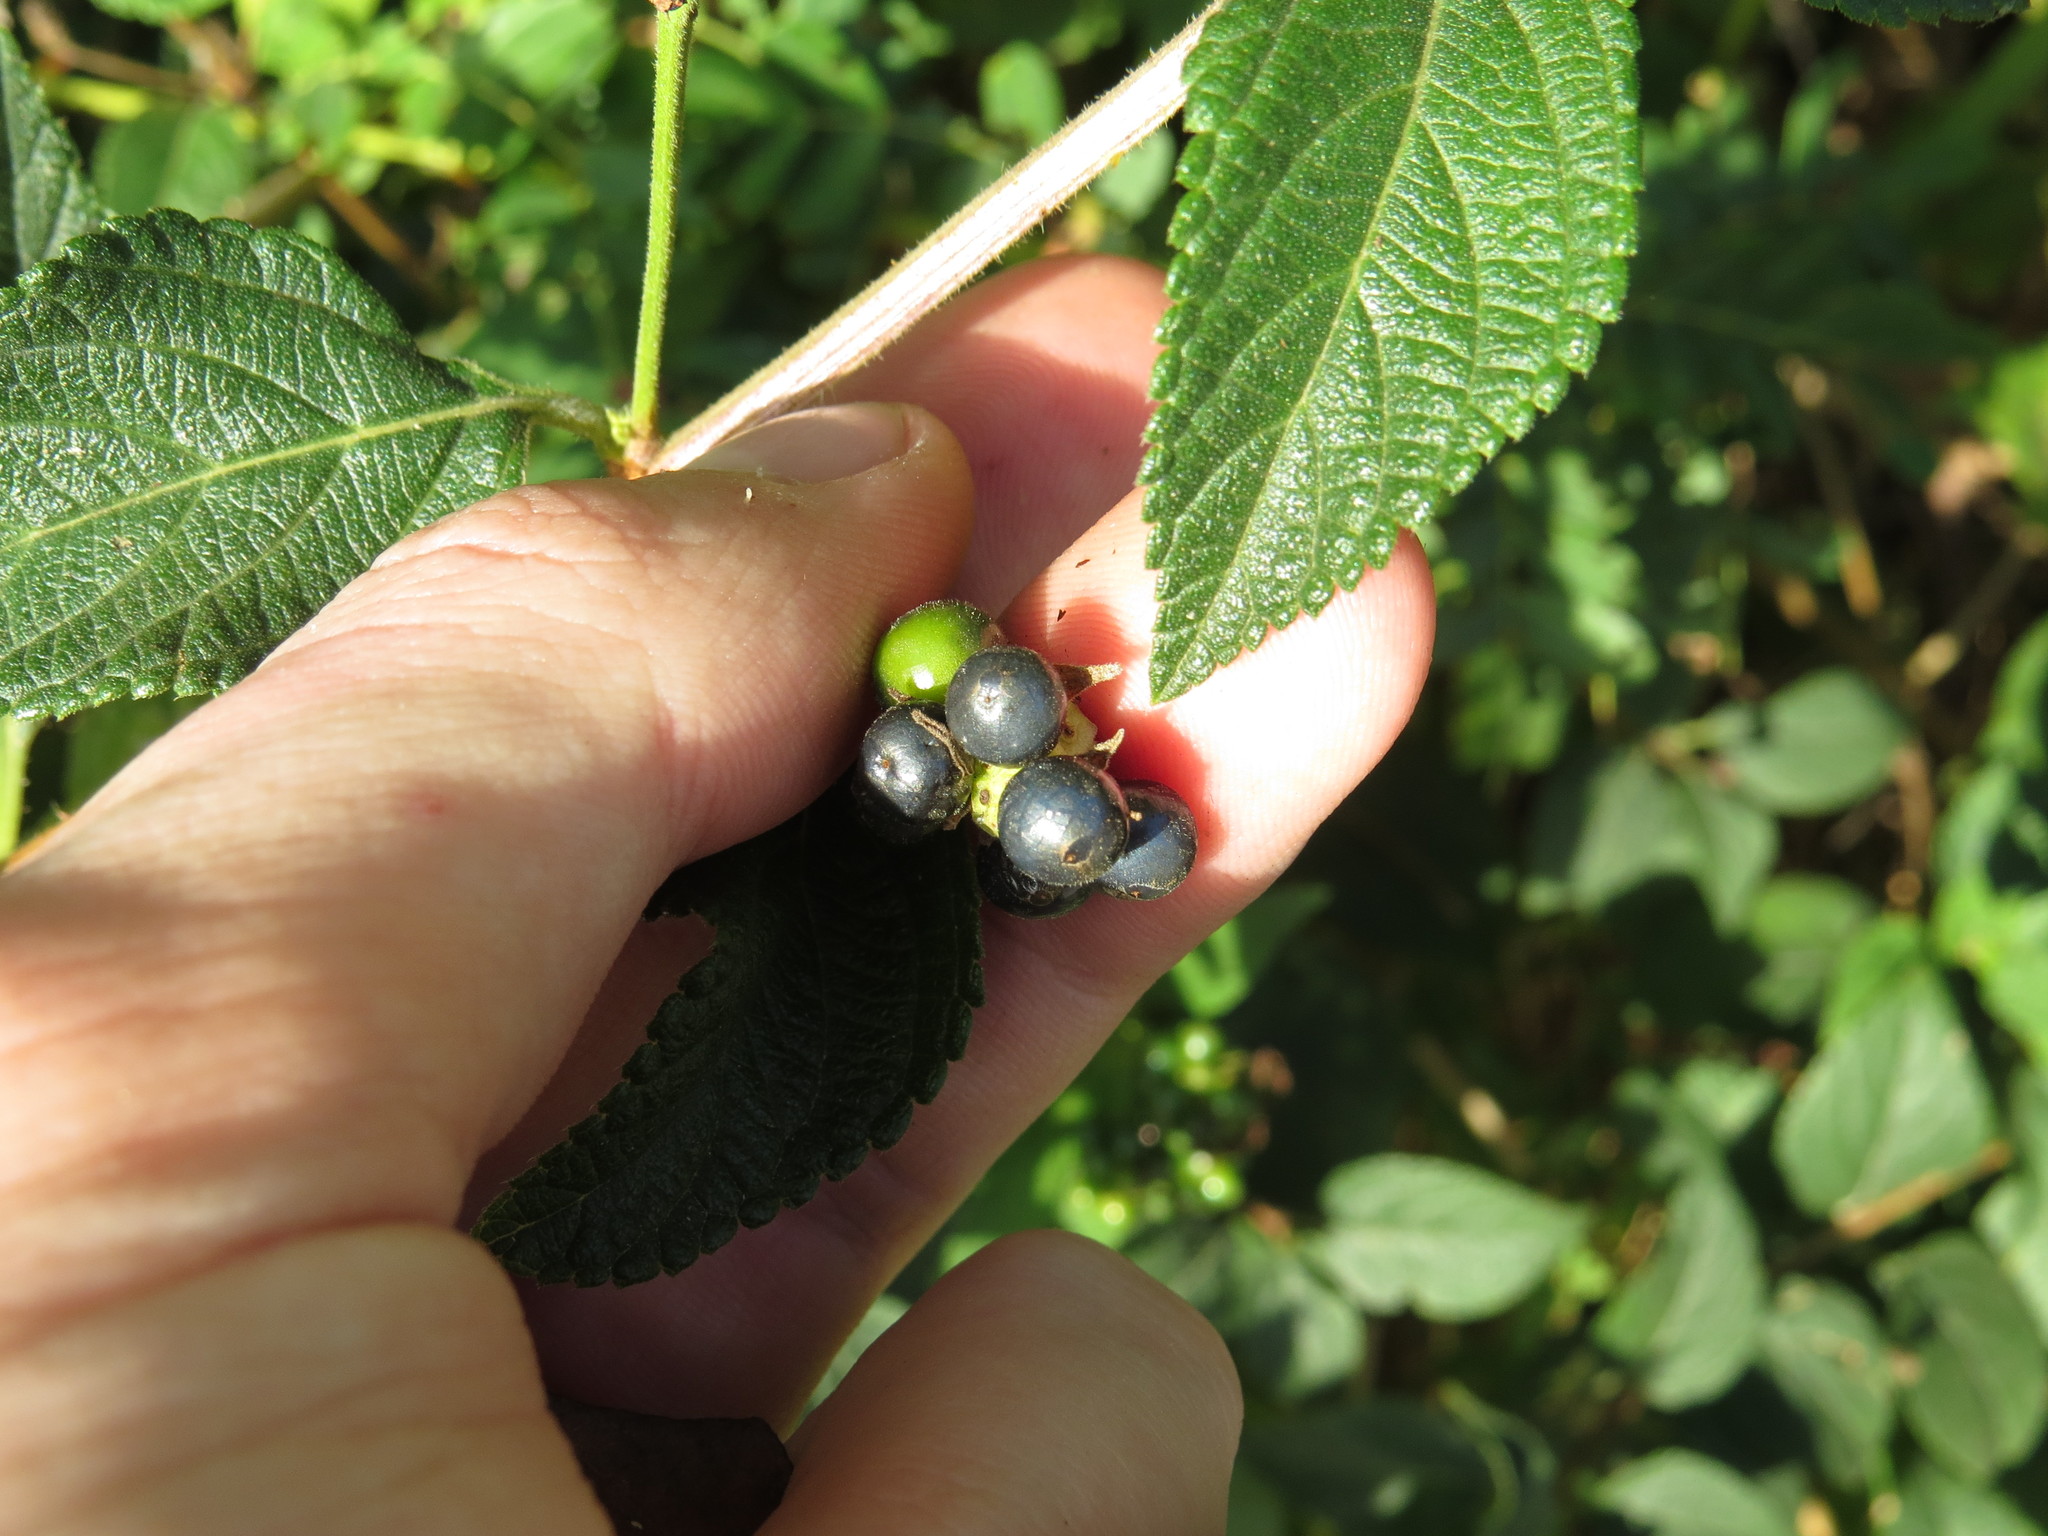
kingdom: Plantae
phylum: Tracheophyta
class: Magnoliopsida
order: Lamiales
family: Verbenaceae
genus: Lantana
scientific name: Lantana camara
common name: Lantana
